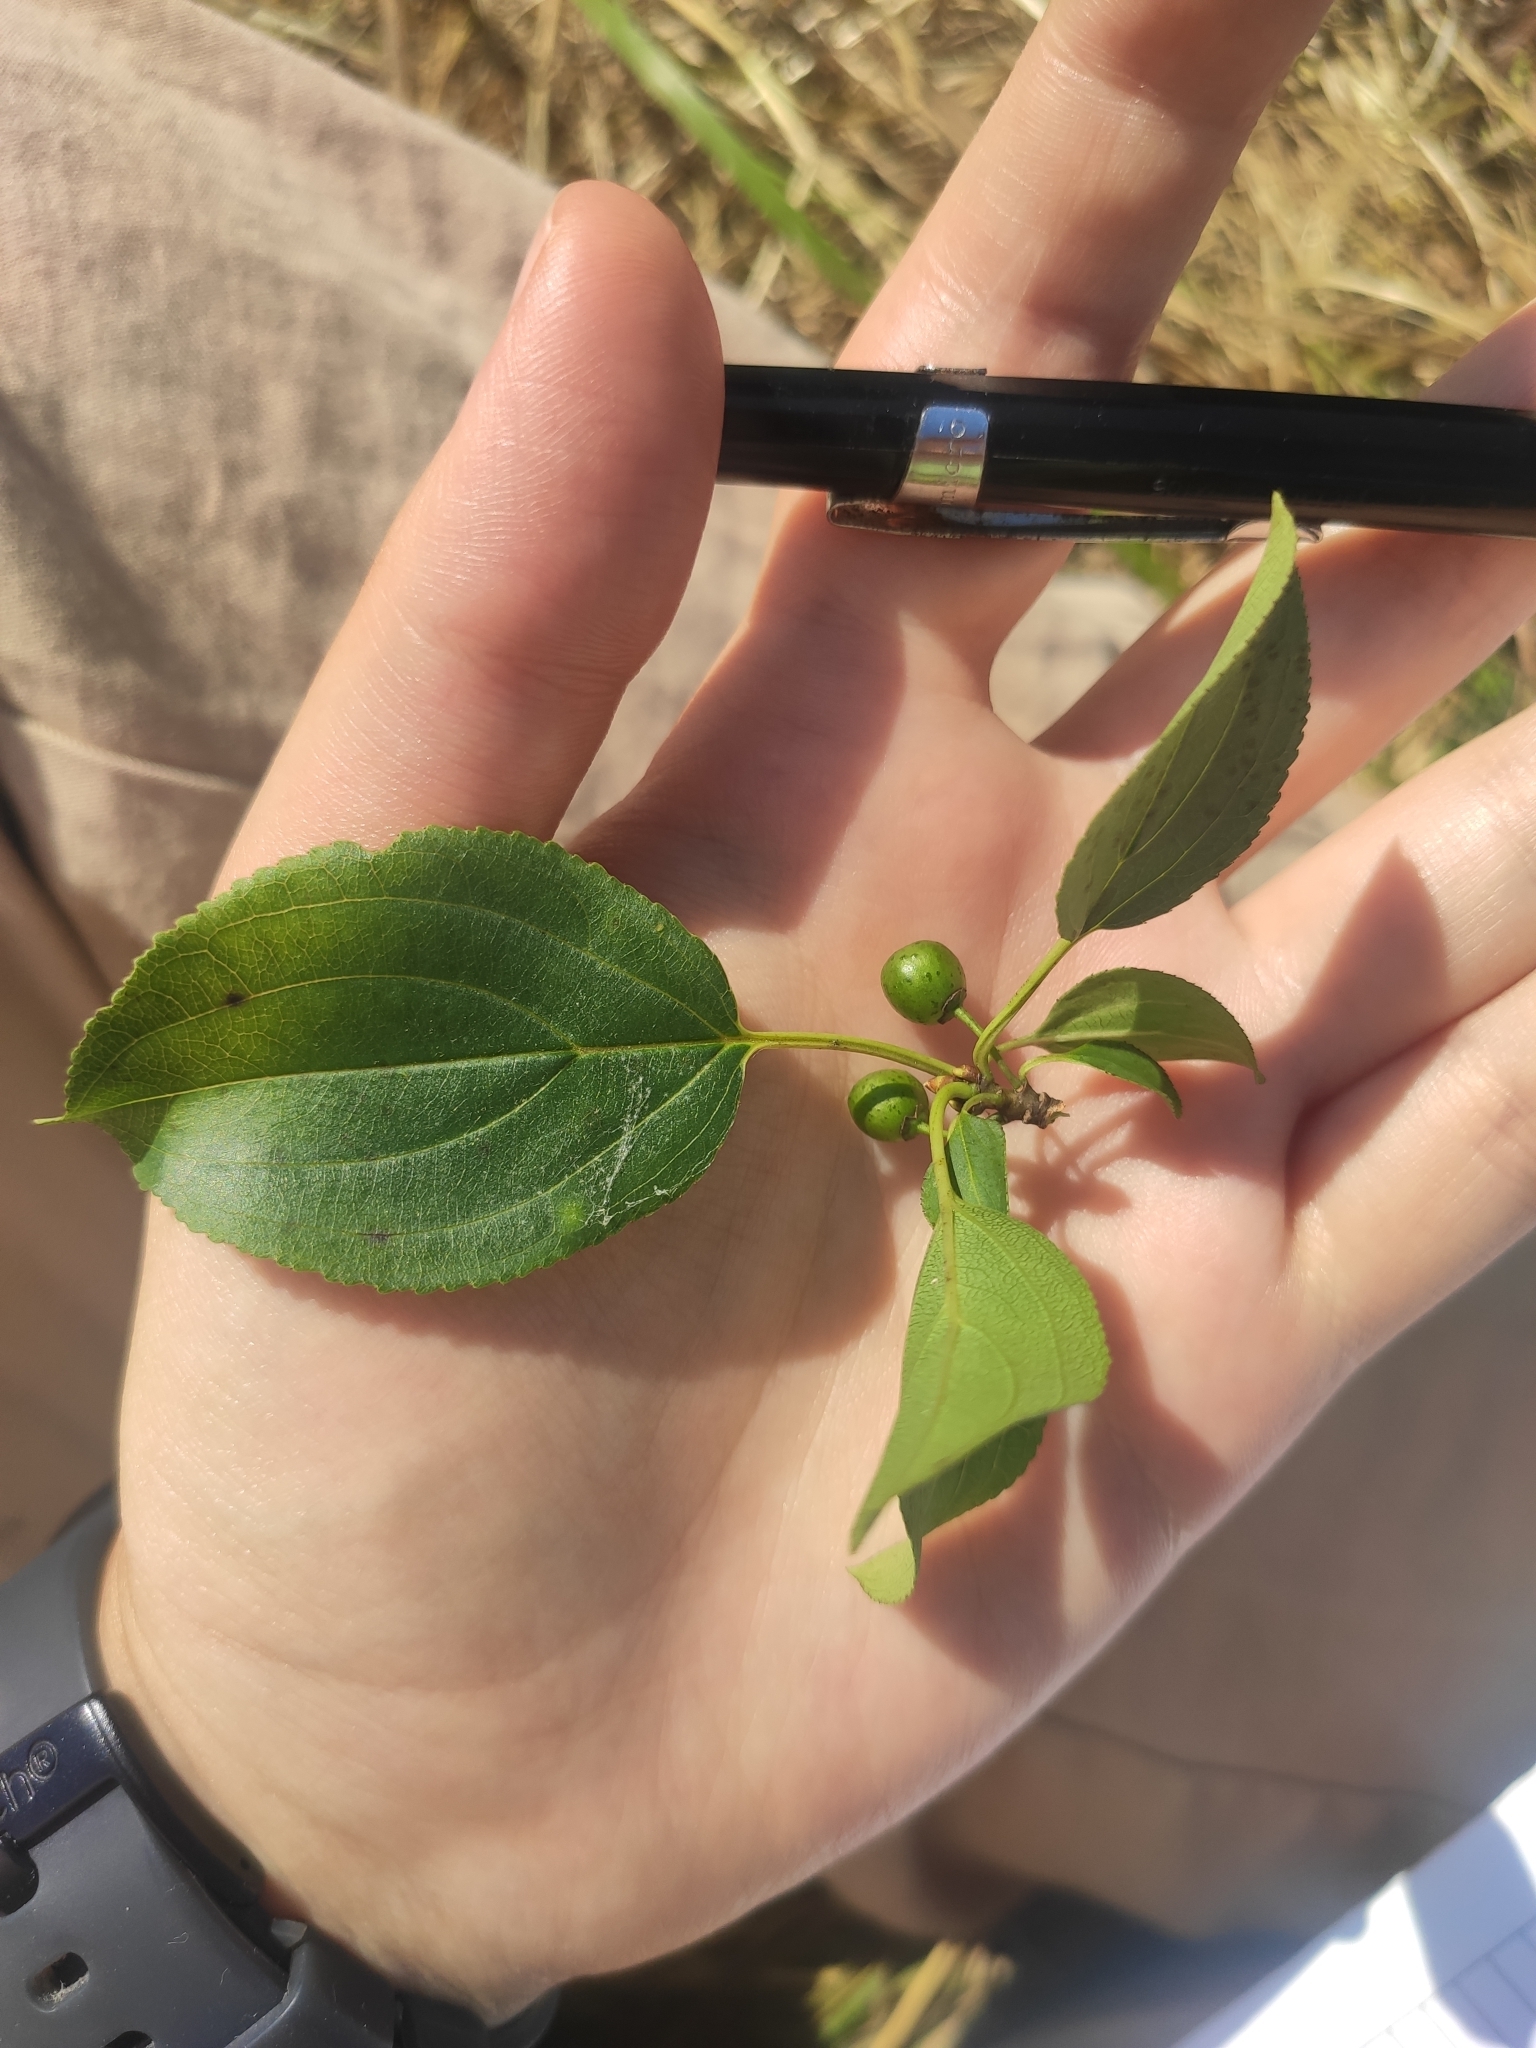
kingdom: Plantae
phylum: Tracheophyta
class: Magnoliopsida
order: Rosales
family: Rhamnaceae
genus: Rhamnus
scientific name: Rhamnus cathartica
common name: Common buckthorn
